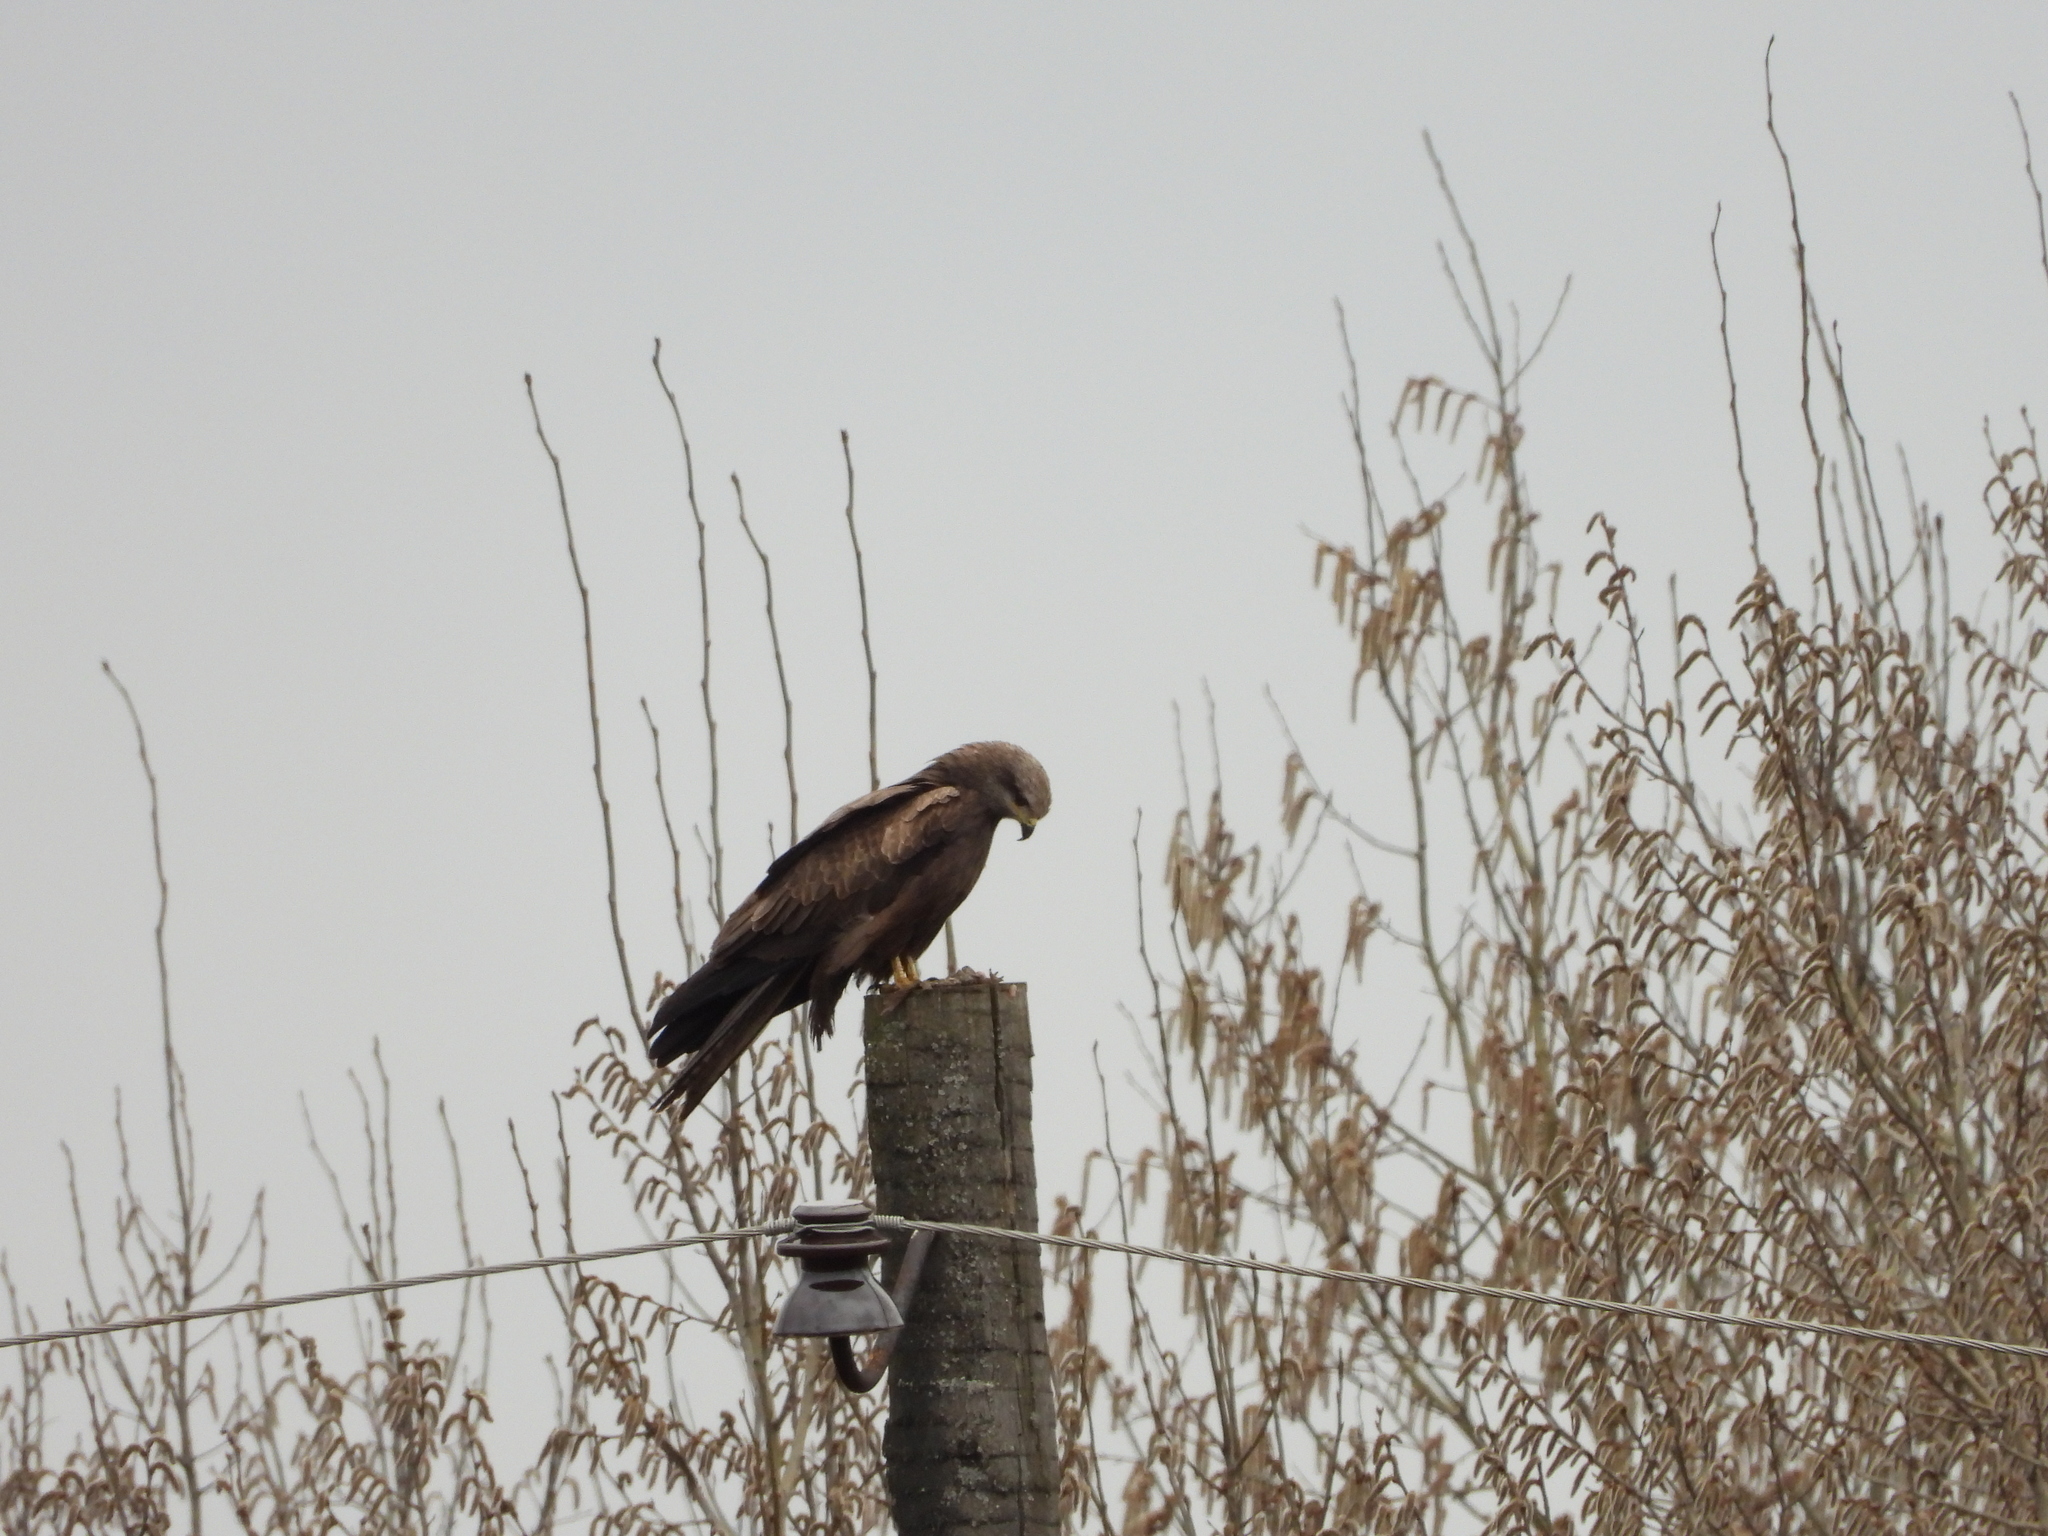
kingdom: Animalia
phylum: Chordata
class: Aves
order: Accipitriformes
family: Accipitridae
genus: Milvus
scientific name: Milvus migrans
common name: Black kite
